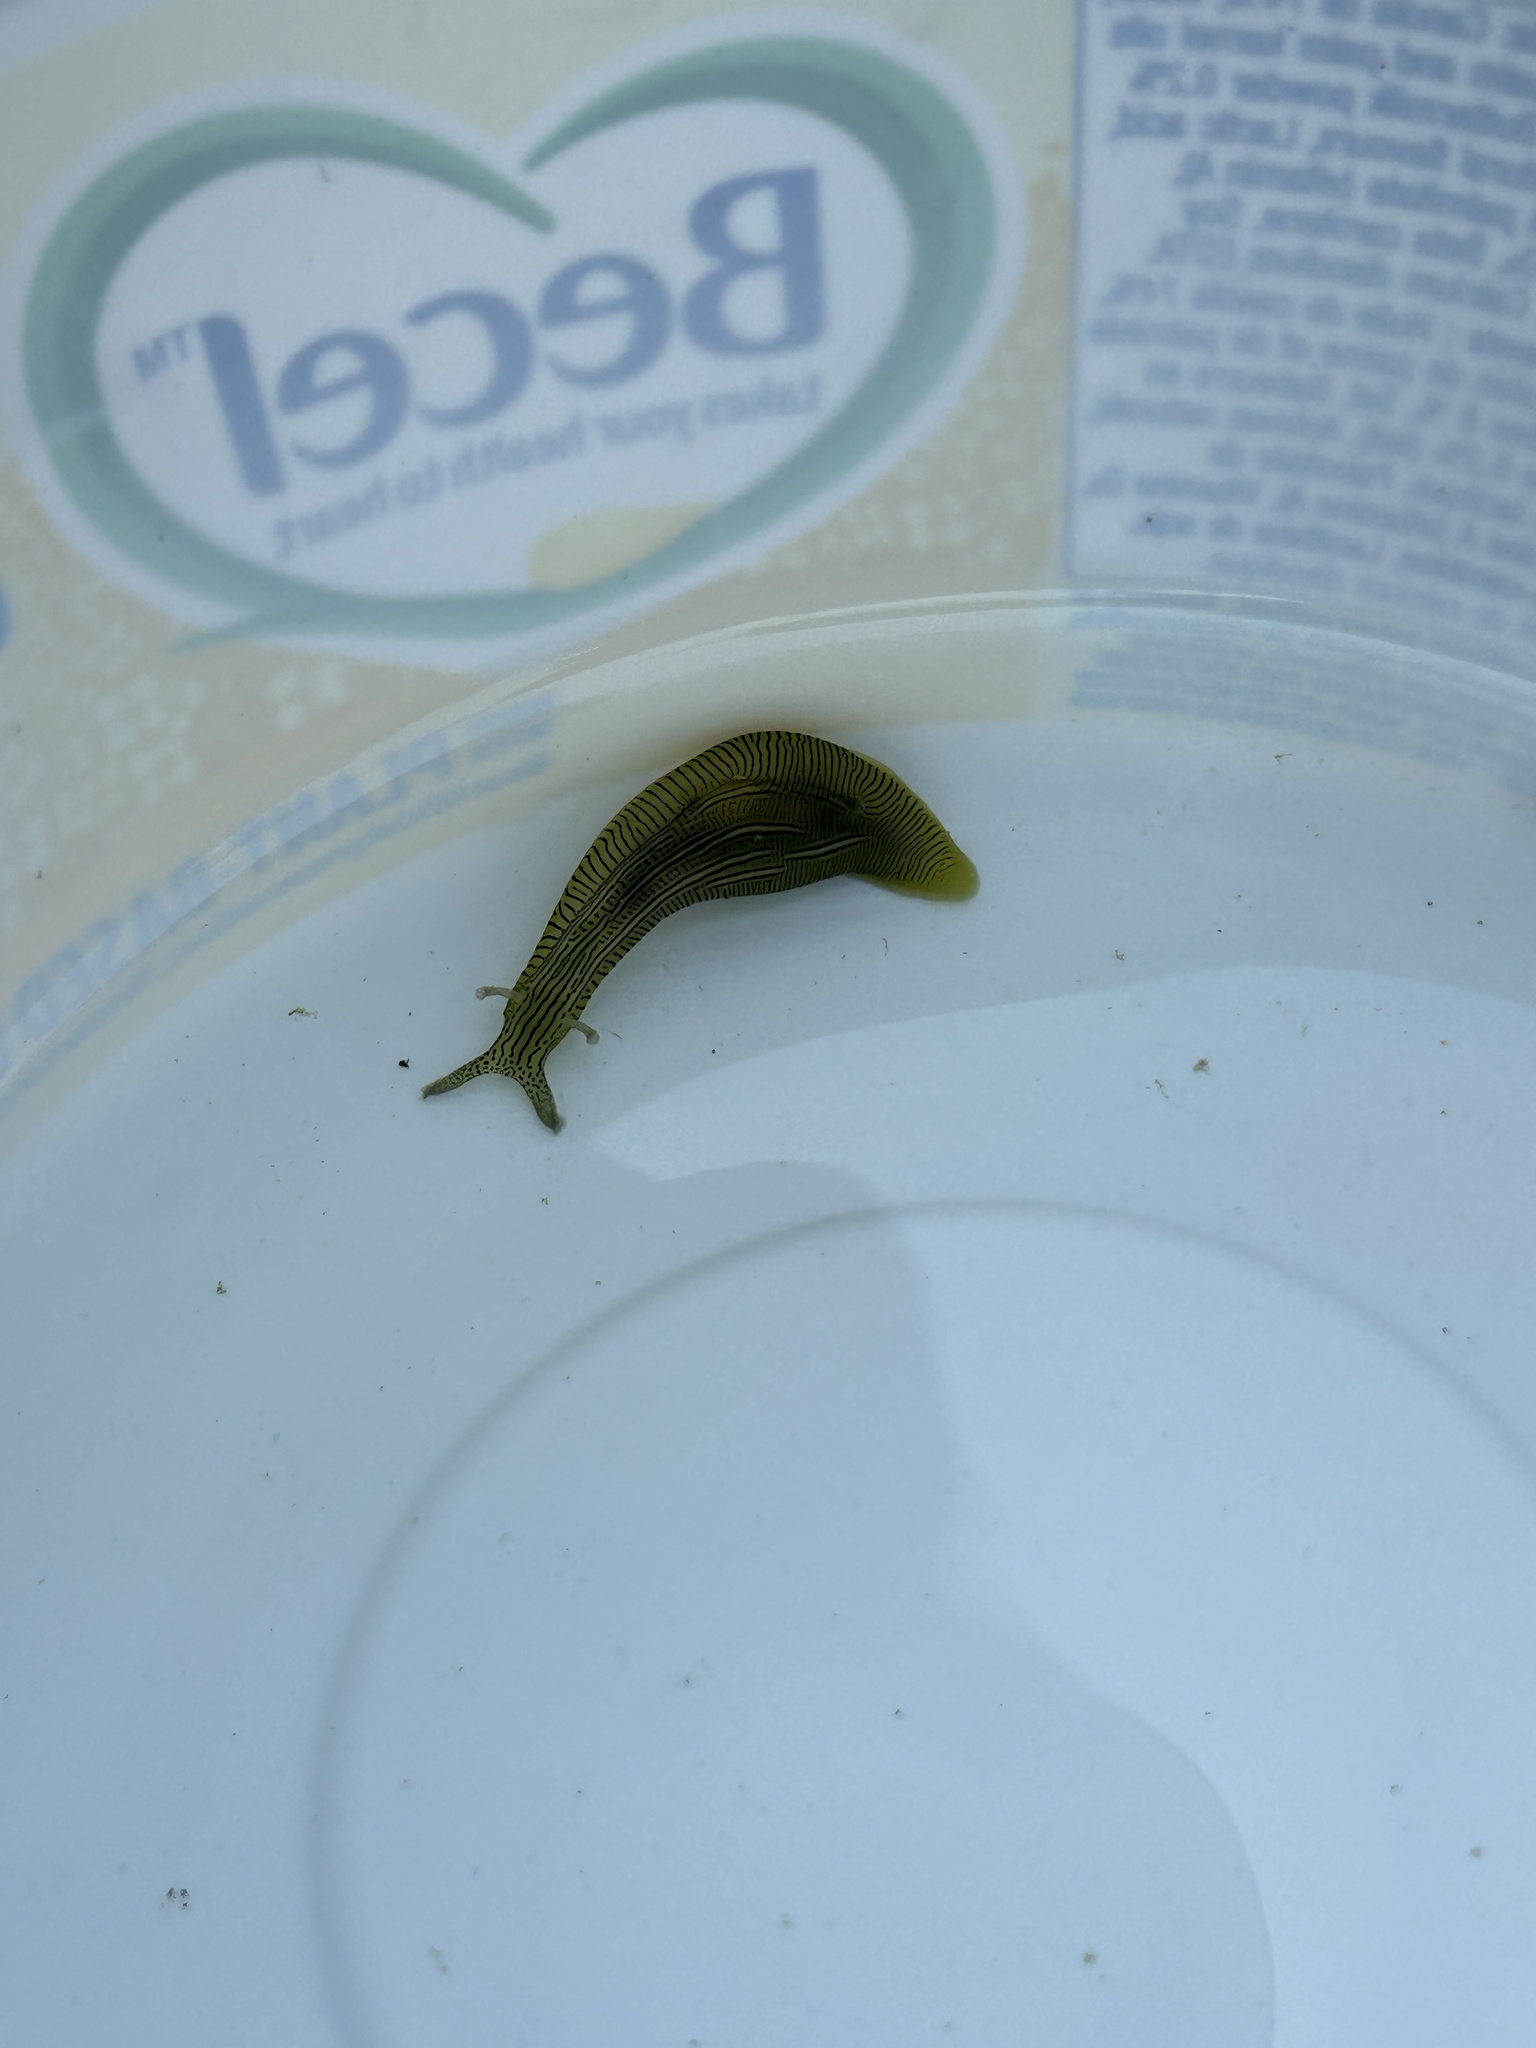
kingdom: Animalia
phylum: Mollusca
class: Gastropoda
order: Aplysiida
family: Aplysiidae
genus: Phyllaplysia
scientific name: Phyllaplysia taylori
